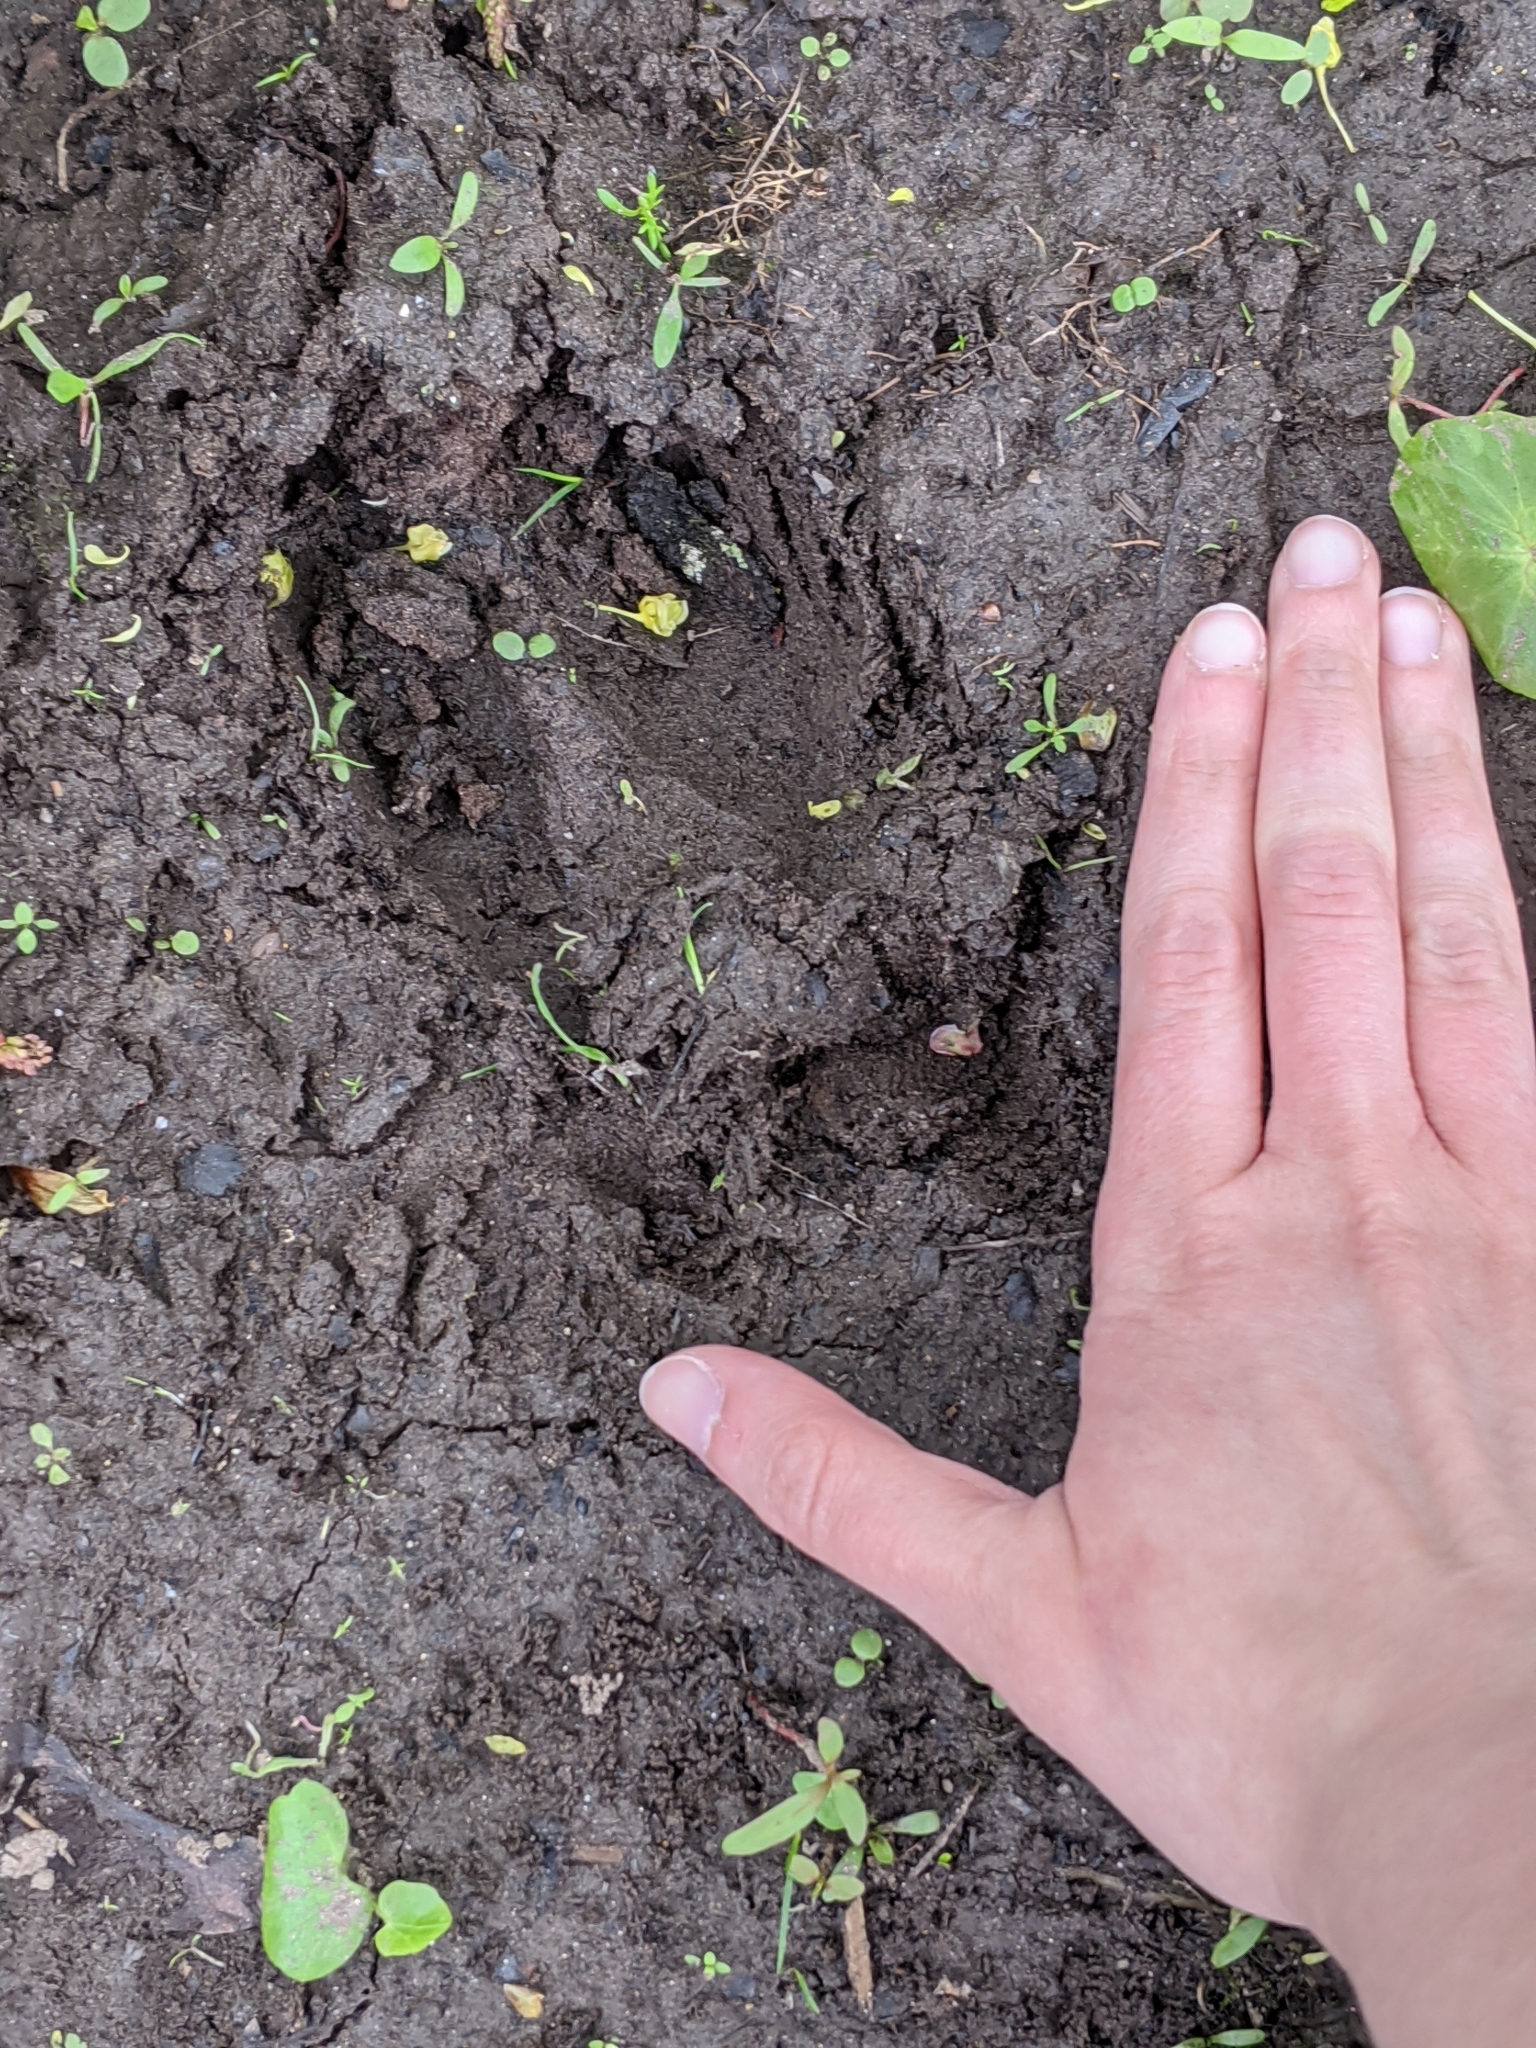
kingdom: Animalia
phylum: Chordata
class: Mammalia
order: Artiodactyla
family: Cervidae
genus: Odocoileus
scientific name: Odocoileus virginianus
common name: White-tailed deer
